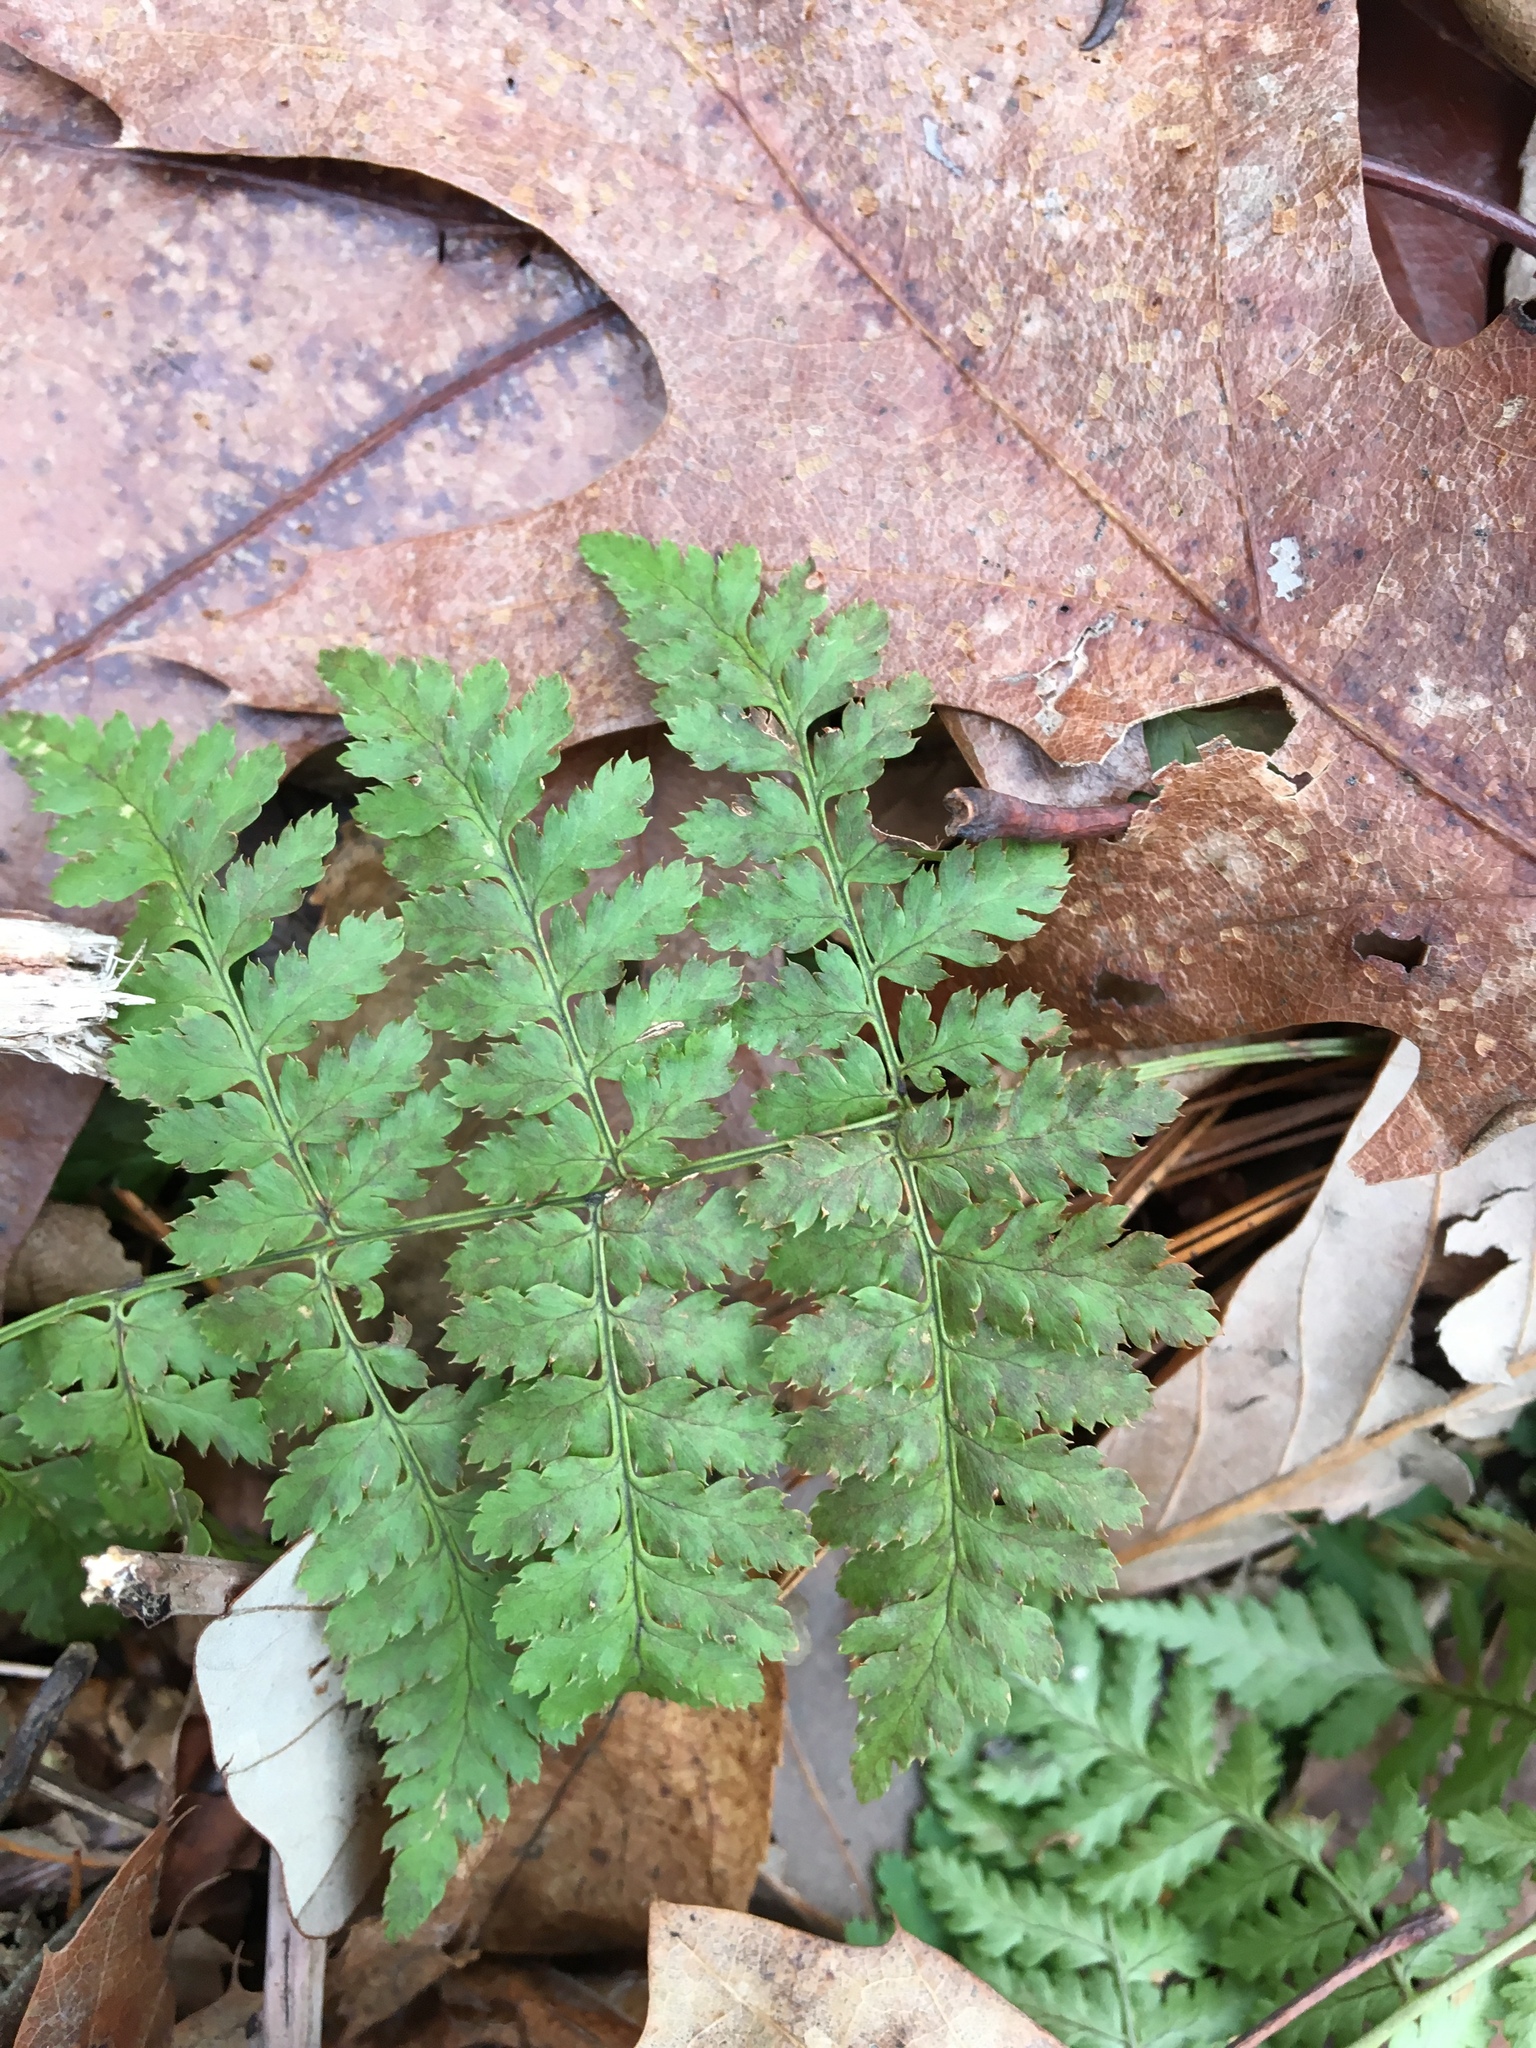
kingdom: Plantae
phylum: Tracheophyta
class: Polypodiopsida
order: Polypodiales
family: Dryopteridaceae
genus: Dryopteris
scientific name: Dryopteris intermedia
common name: Evergreen wood fern
